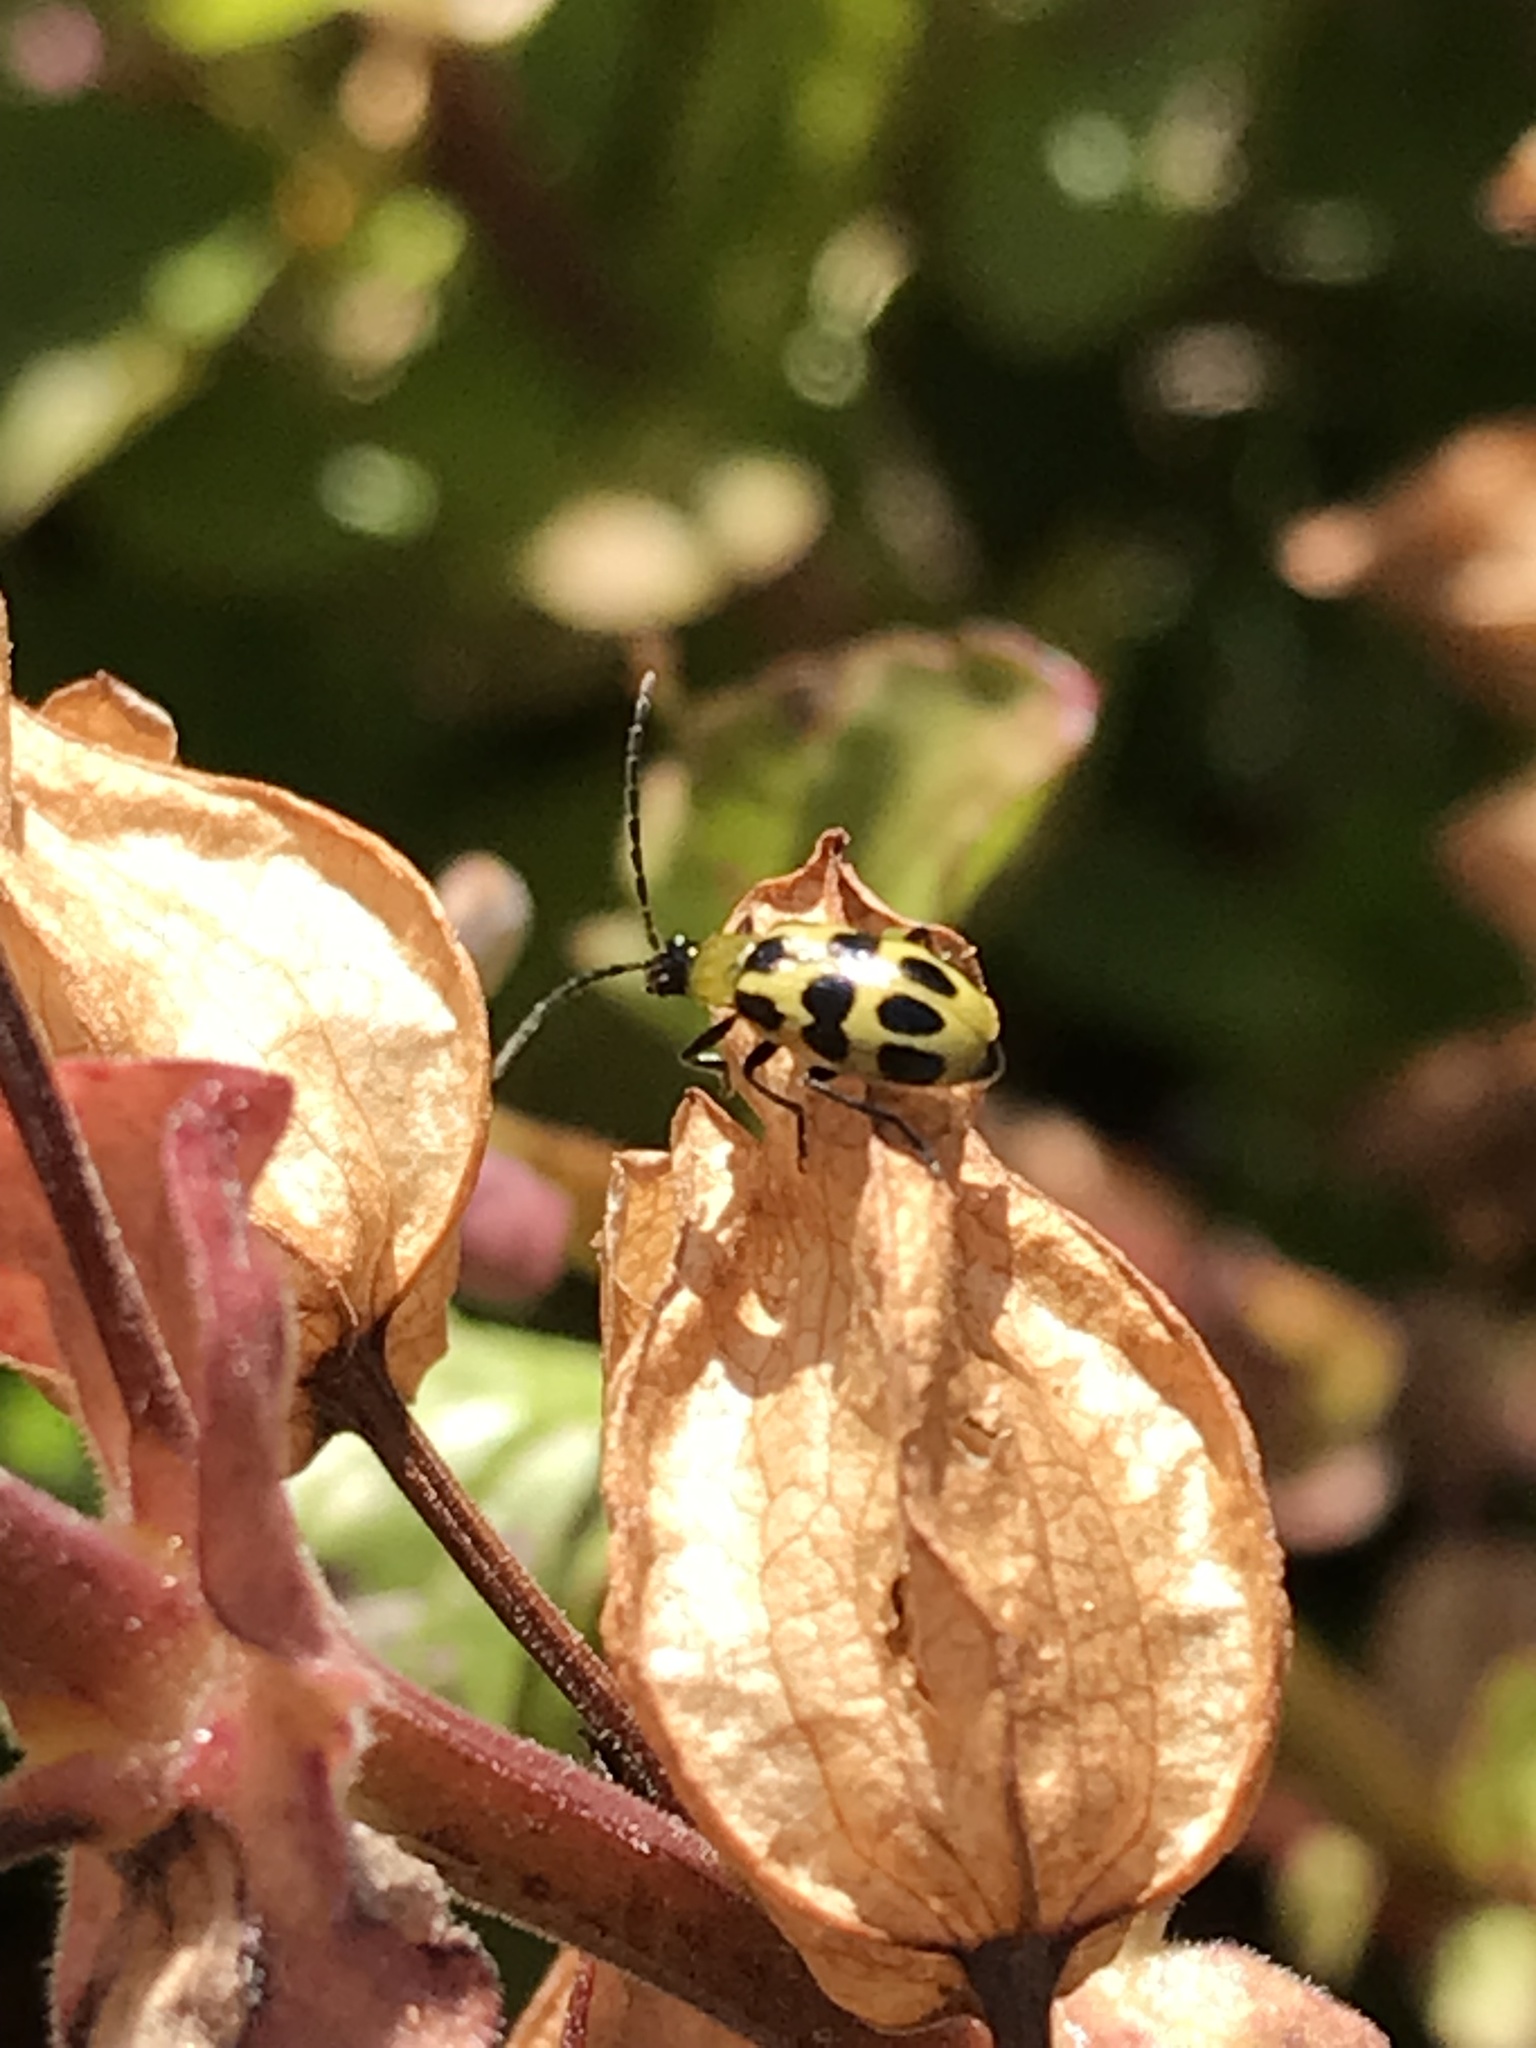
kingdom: Animalia
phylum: Arthropoda
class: Insecta
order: Coleoptera
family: Chrysomelidae
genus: Diabrotica
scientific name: Diabrotica undecimpunctata
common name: Spotted cucumber beetle
